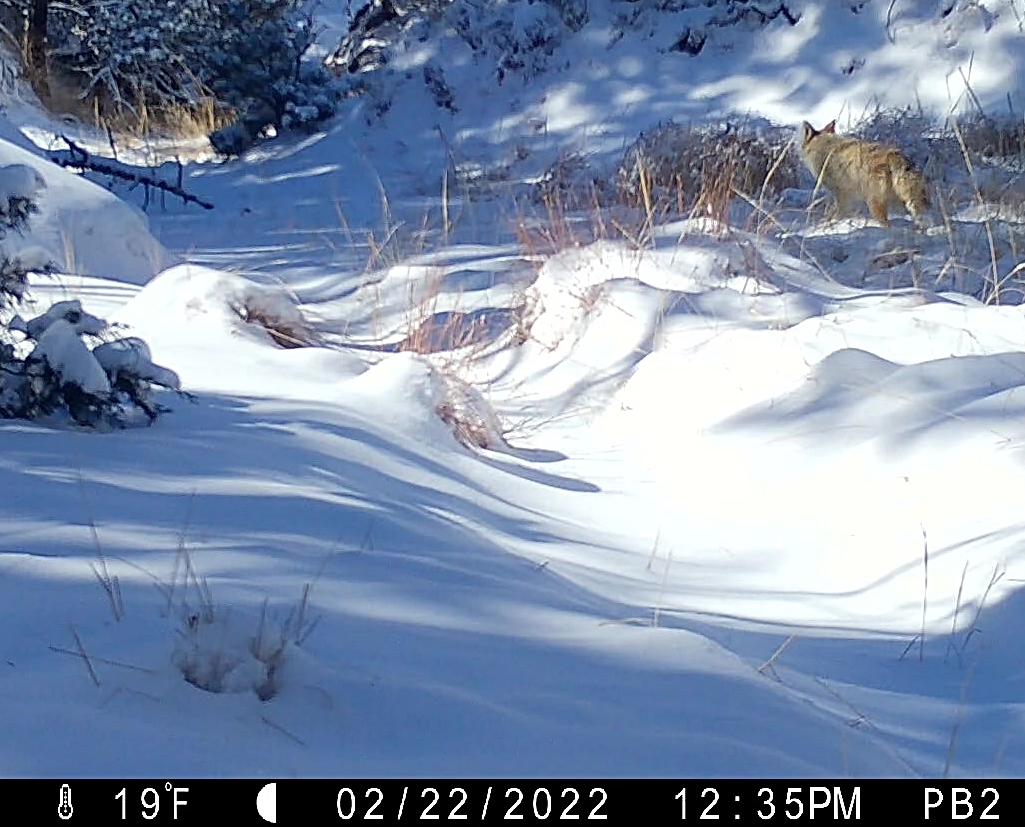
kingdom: Animalia
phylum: Chordata
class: Mammalia
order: Carnivora
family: Canidae
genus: Canis
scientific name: Canis latrans
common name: Coyote
